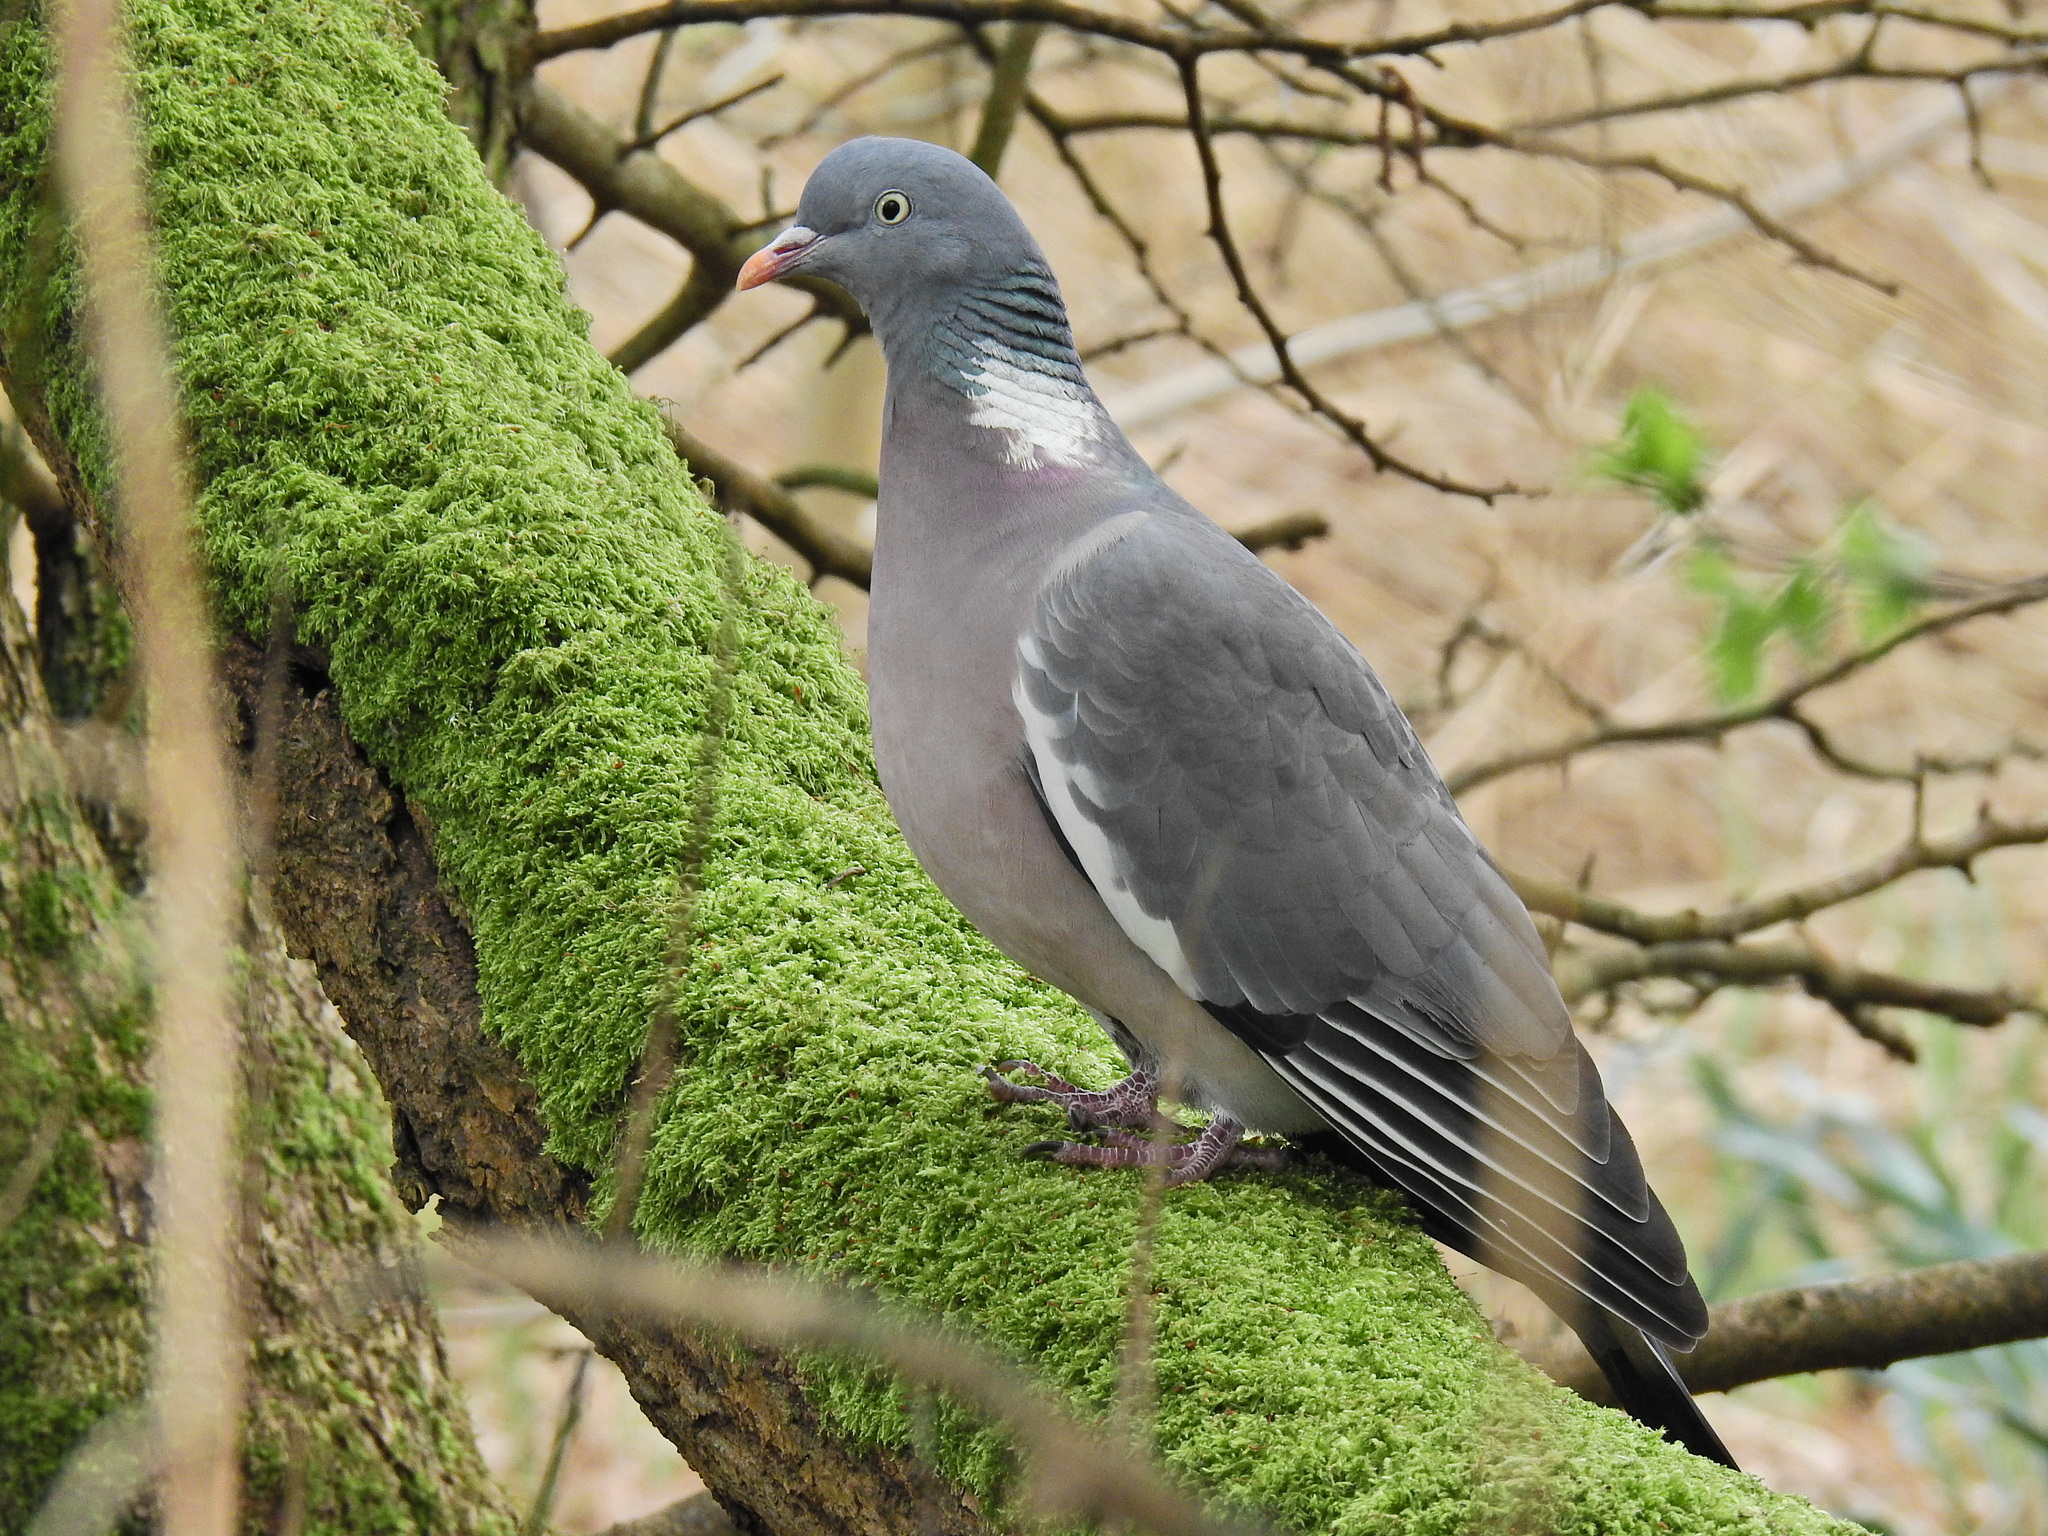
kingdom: Animalia
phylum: Chordata
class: Aves
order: Columbiformes
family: Columbidae
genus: Columba
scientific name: Columba palumbus
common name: Common wood pigeon
